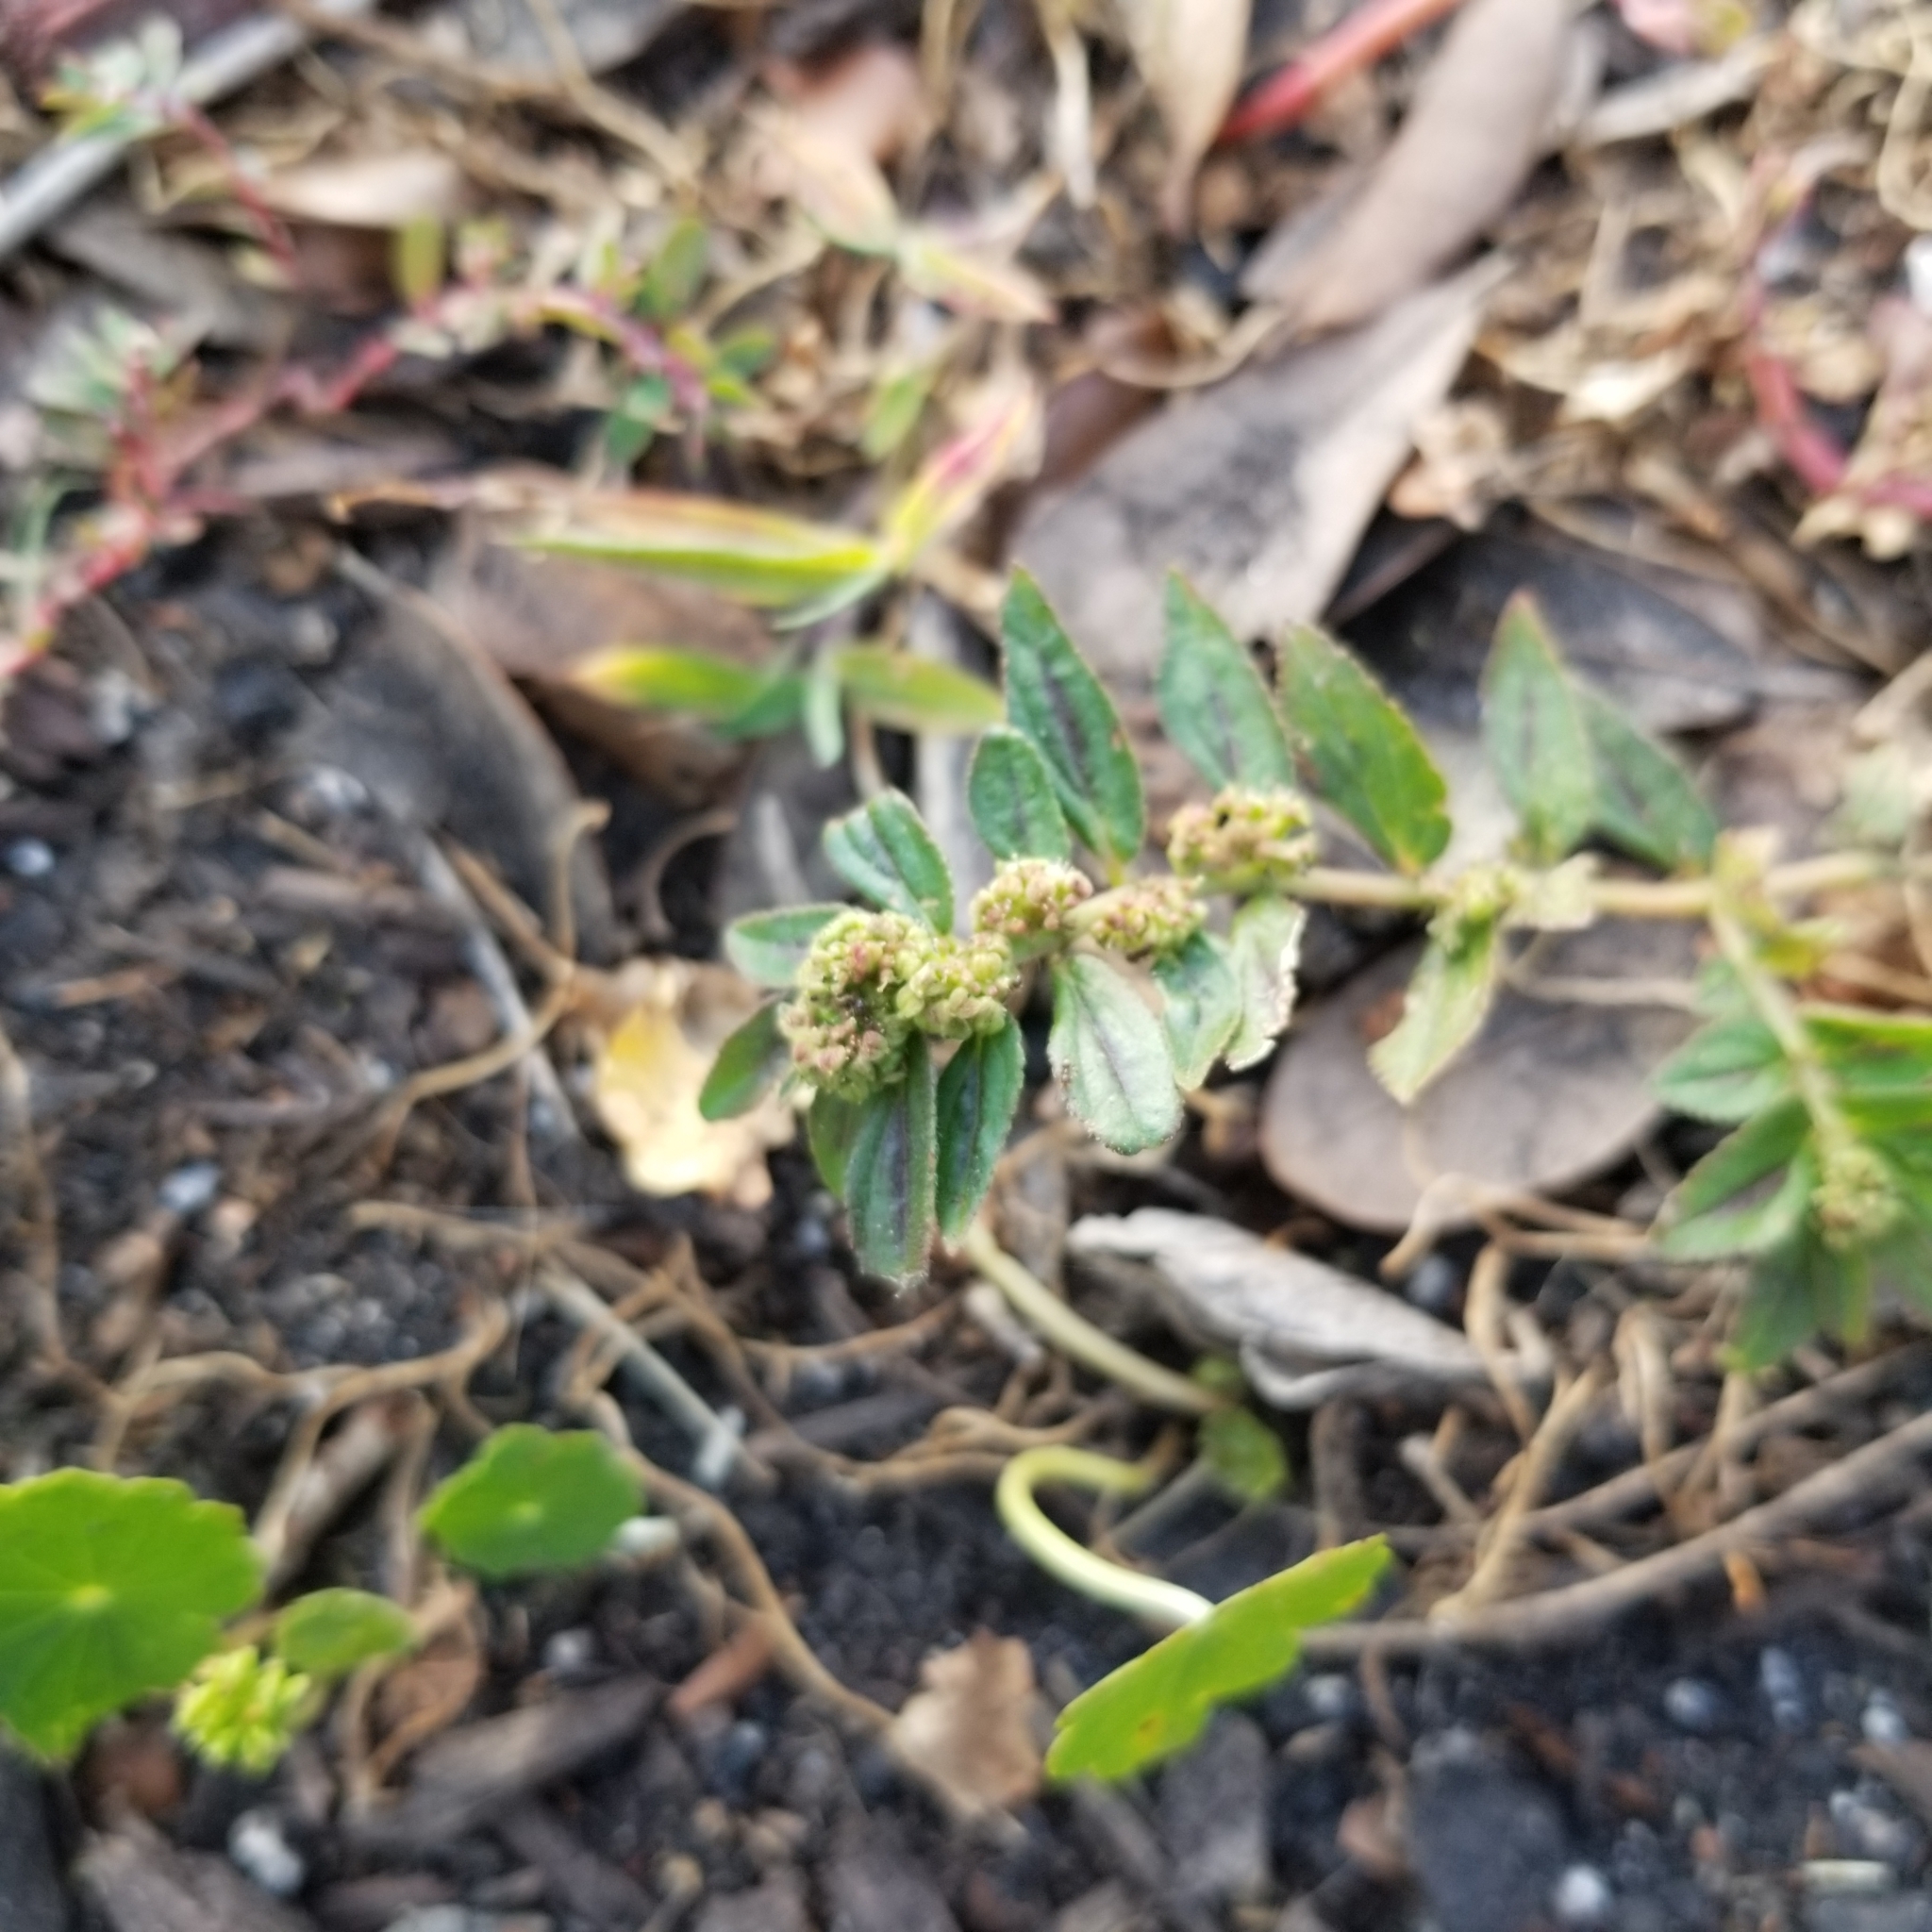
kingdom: Plantae
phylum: Tracheophyta
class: Magnoliopsida
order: Malpighiales
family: Euphorbiaceae
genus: Euphorbia
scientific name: Euphorbia hirta
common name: Pillpod sandmat
